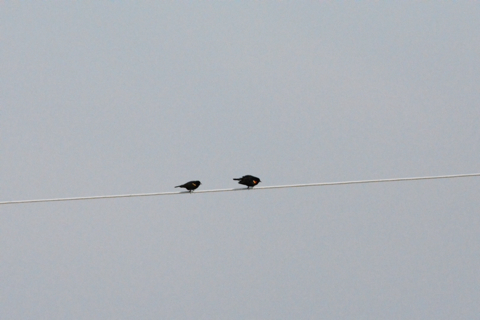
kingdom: Animalia
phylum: Chordata
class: Aves
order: Passeriformes
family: Icteridae
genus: Agelaius
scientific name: Agelaius phoeniceus
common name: Red-winged blackbird
